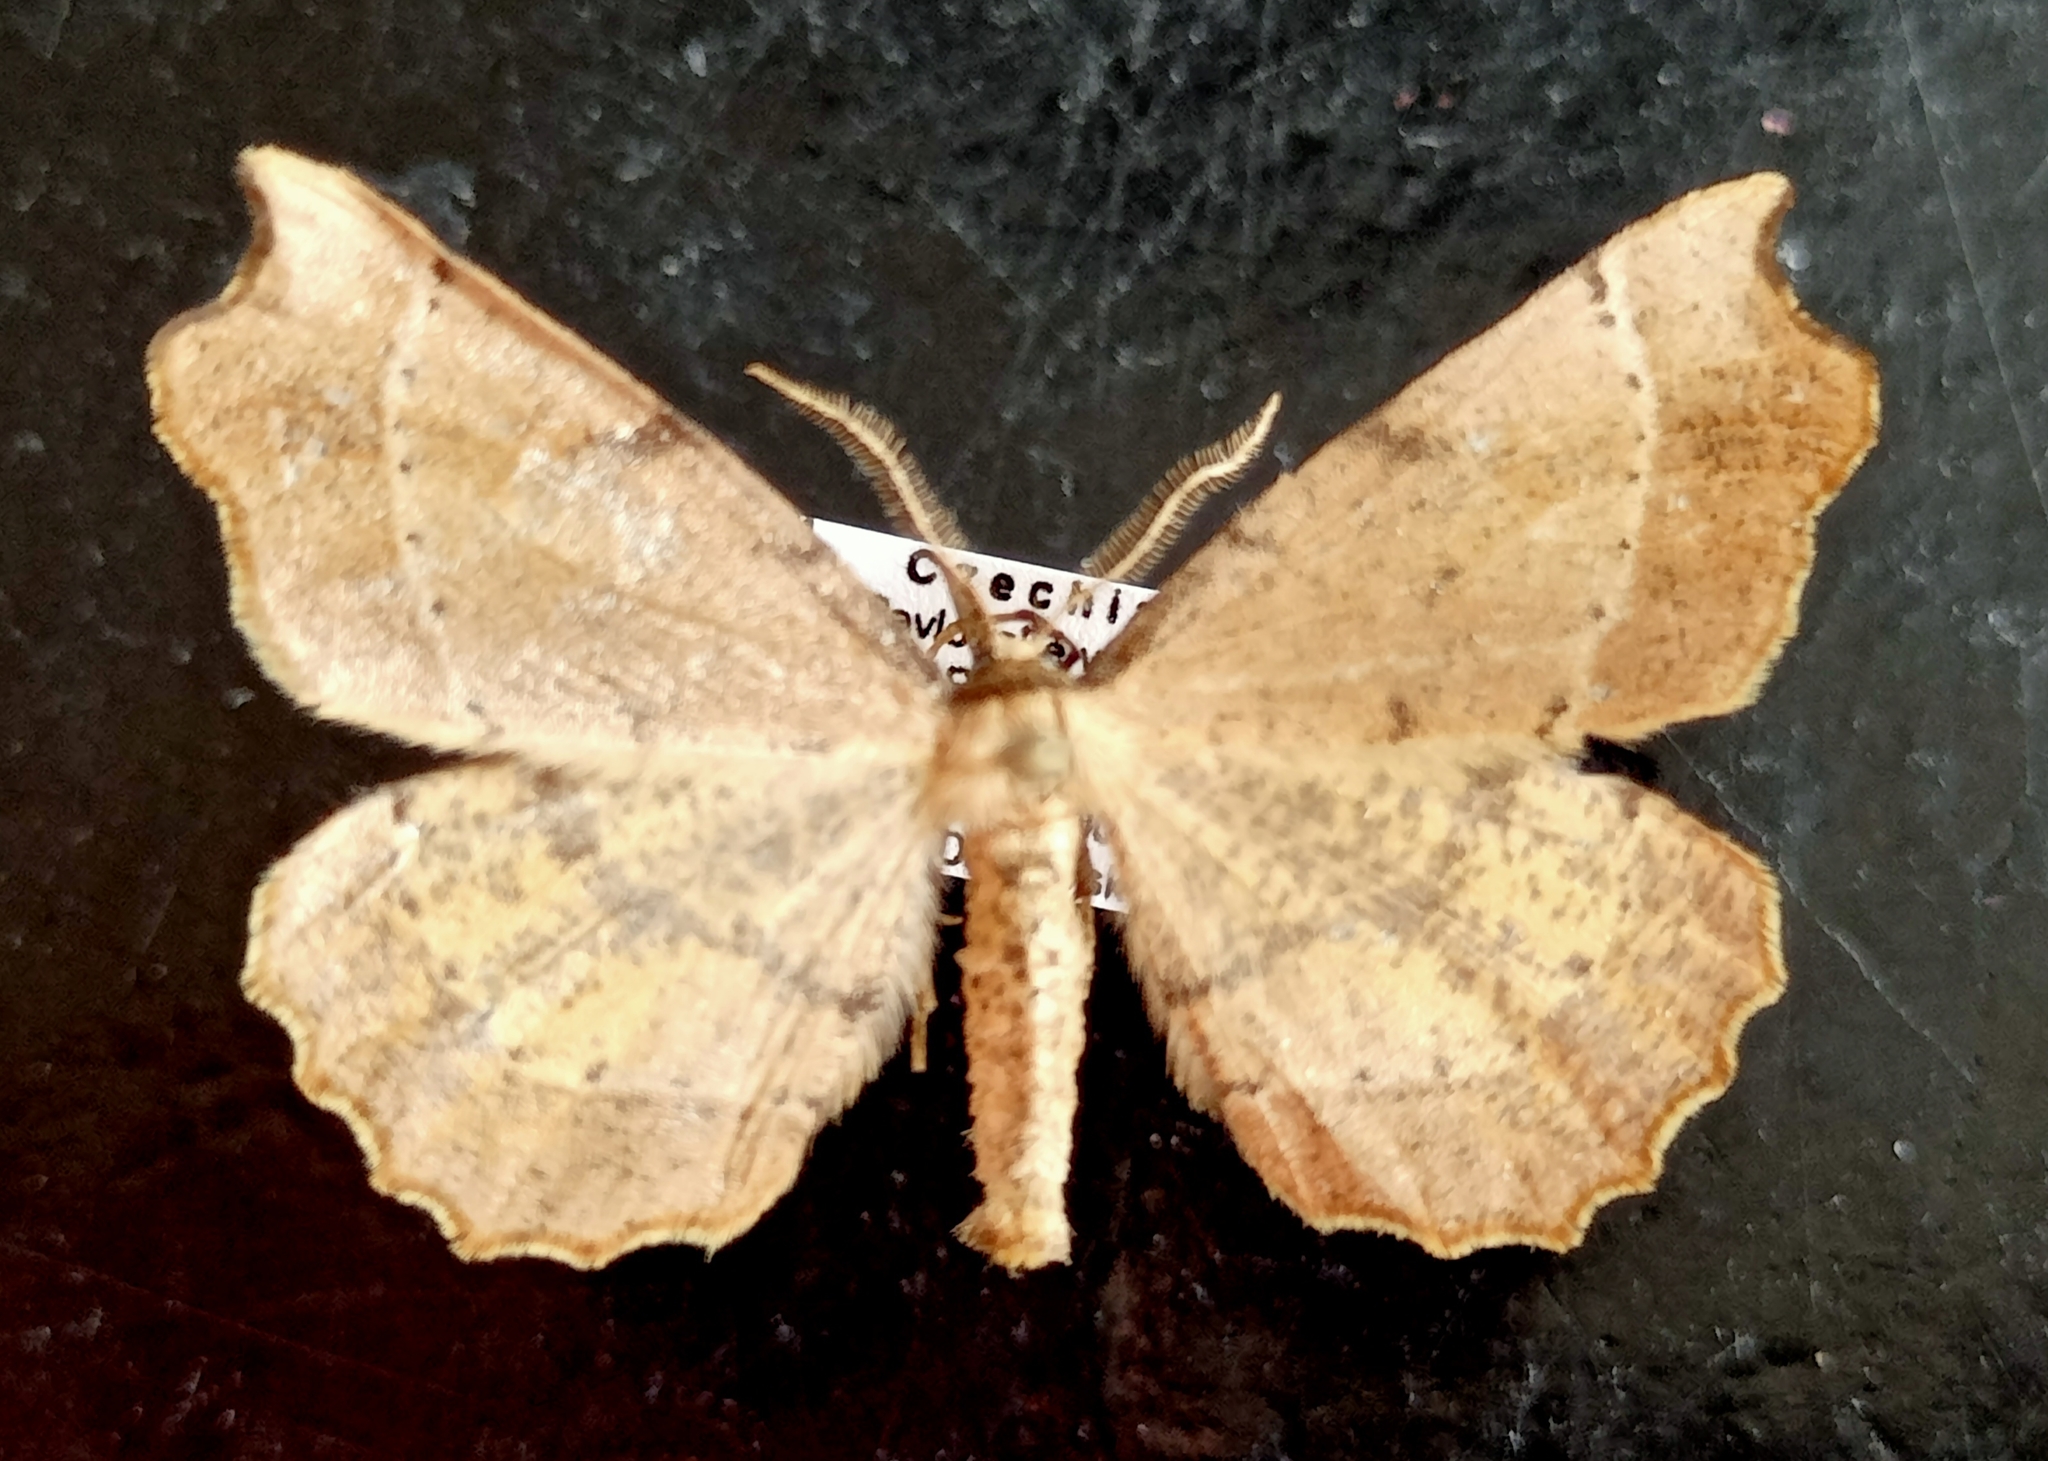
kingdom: Animalia
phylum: Arthropoda
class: Insecta
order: Lepidoptera
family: Geometridae
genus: Artiora
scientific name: Artiora evonymaria
